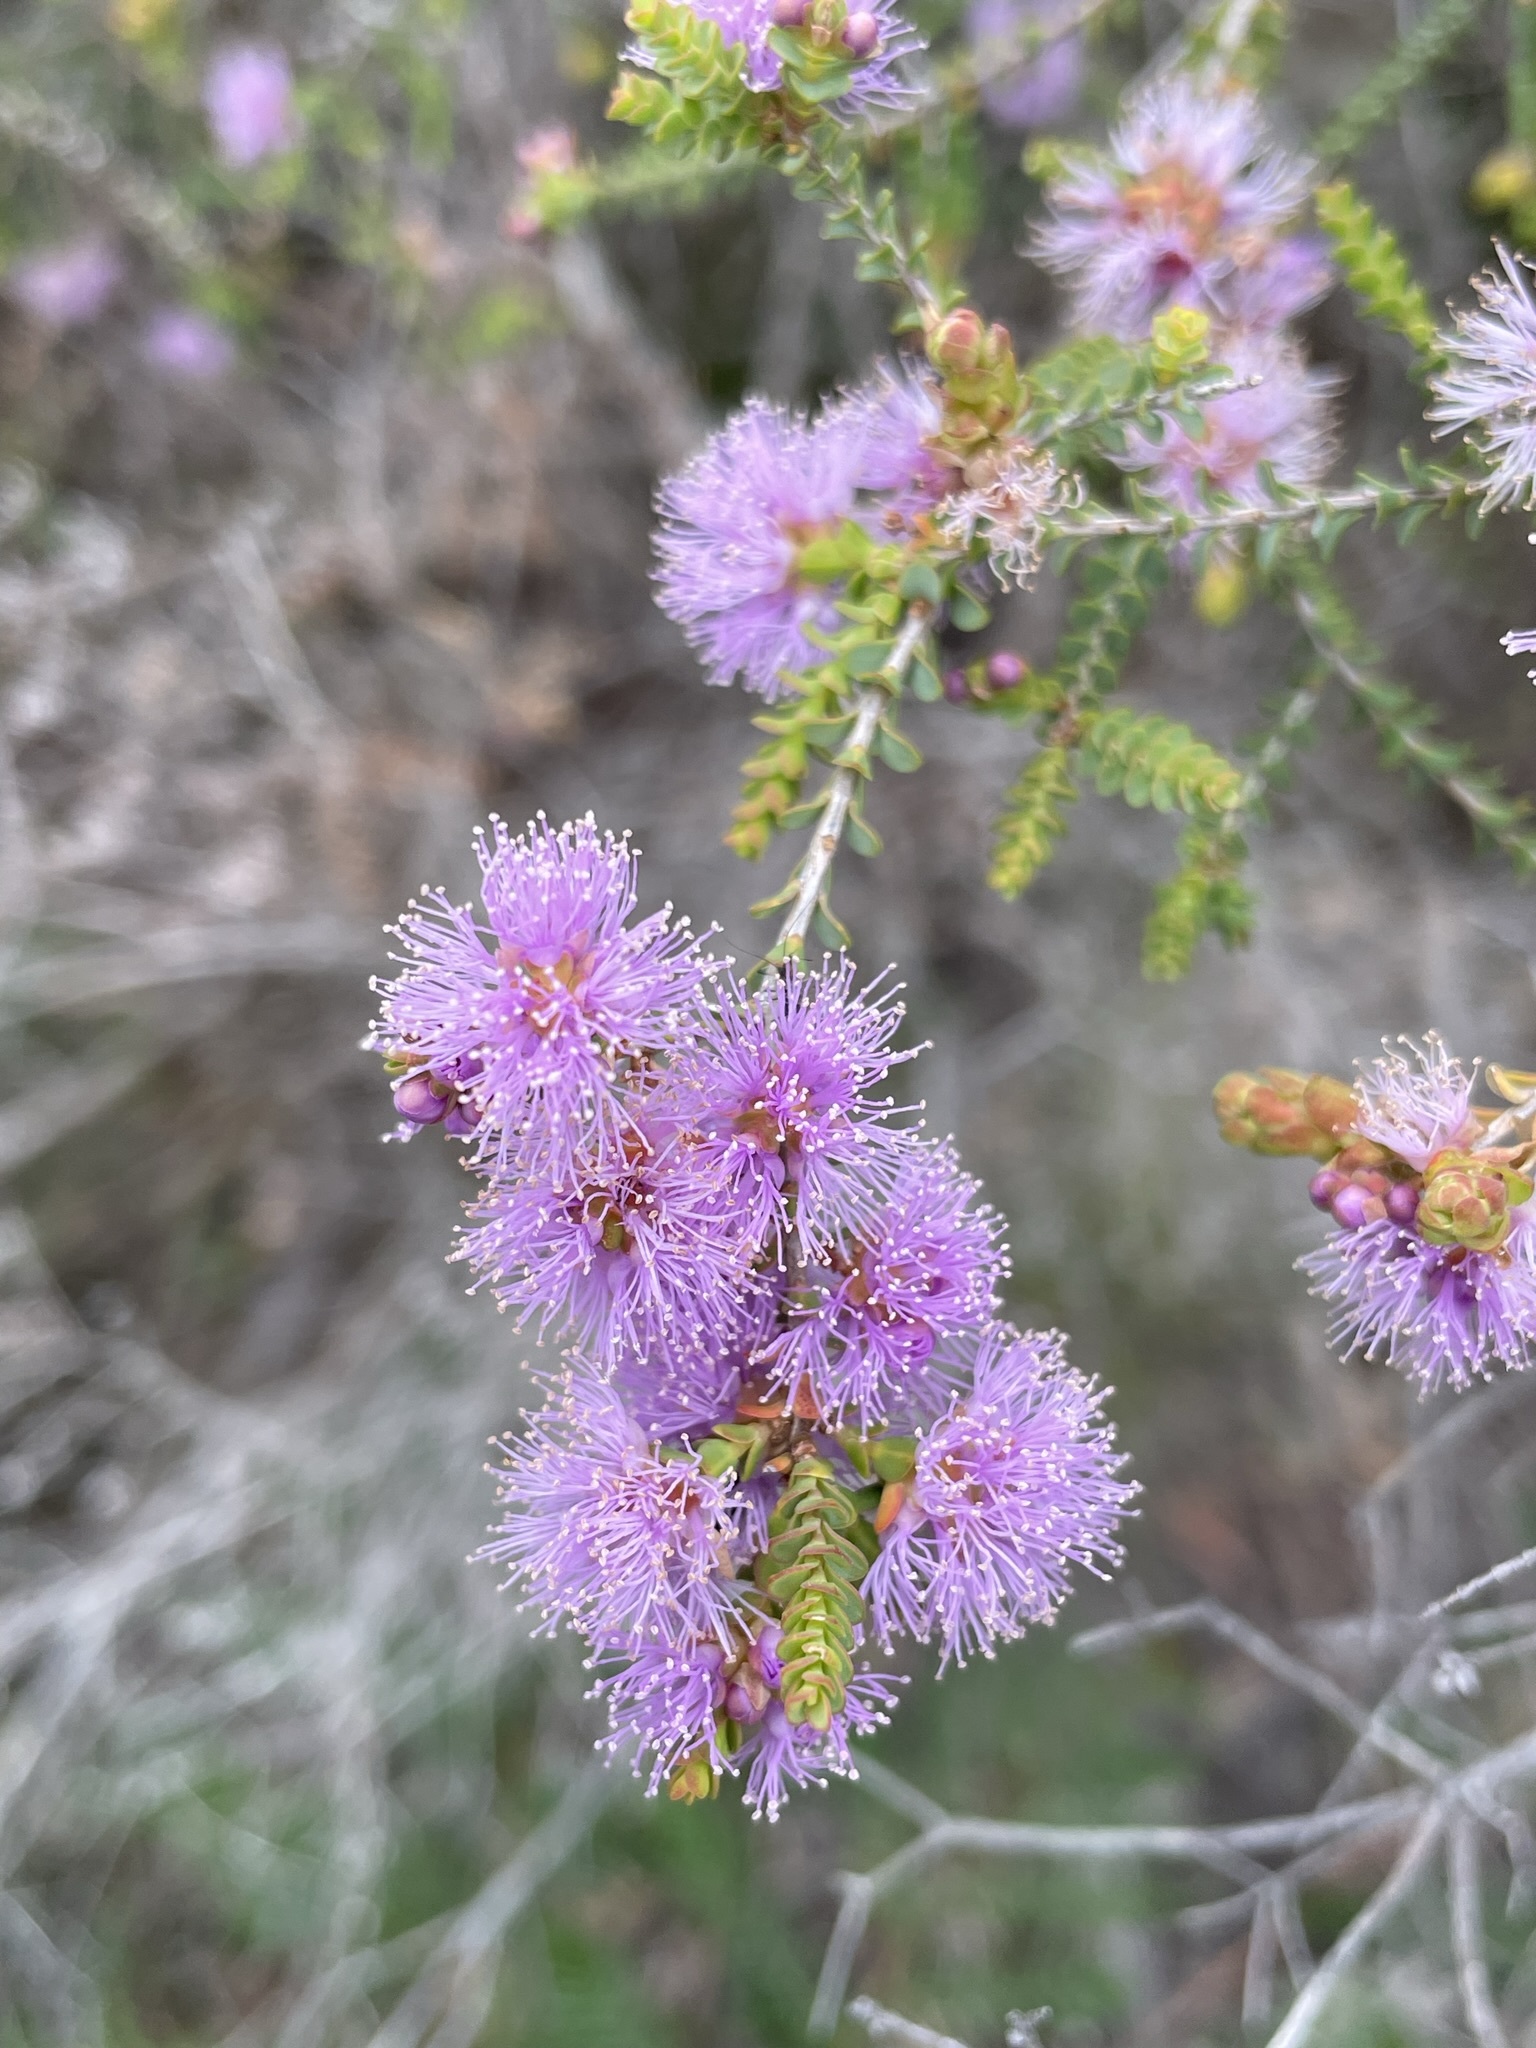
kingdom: Plantae
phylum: Tracheophyta
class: Magnoliopsida
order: Myrtales
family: Myrtaceae
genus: Melaleuca
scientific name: Melaleuca gibbosa
